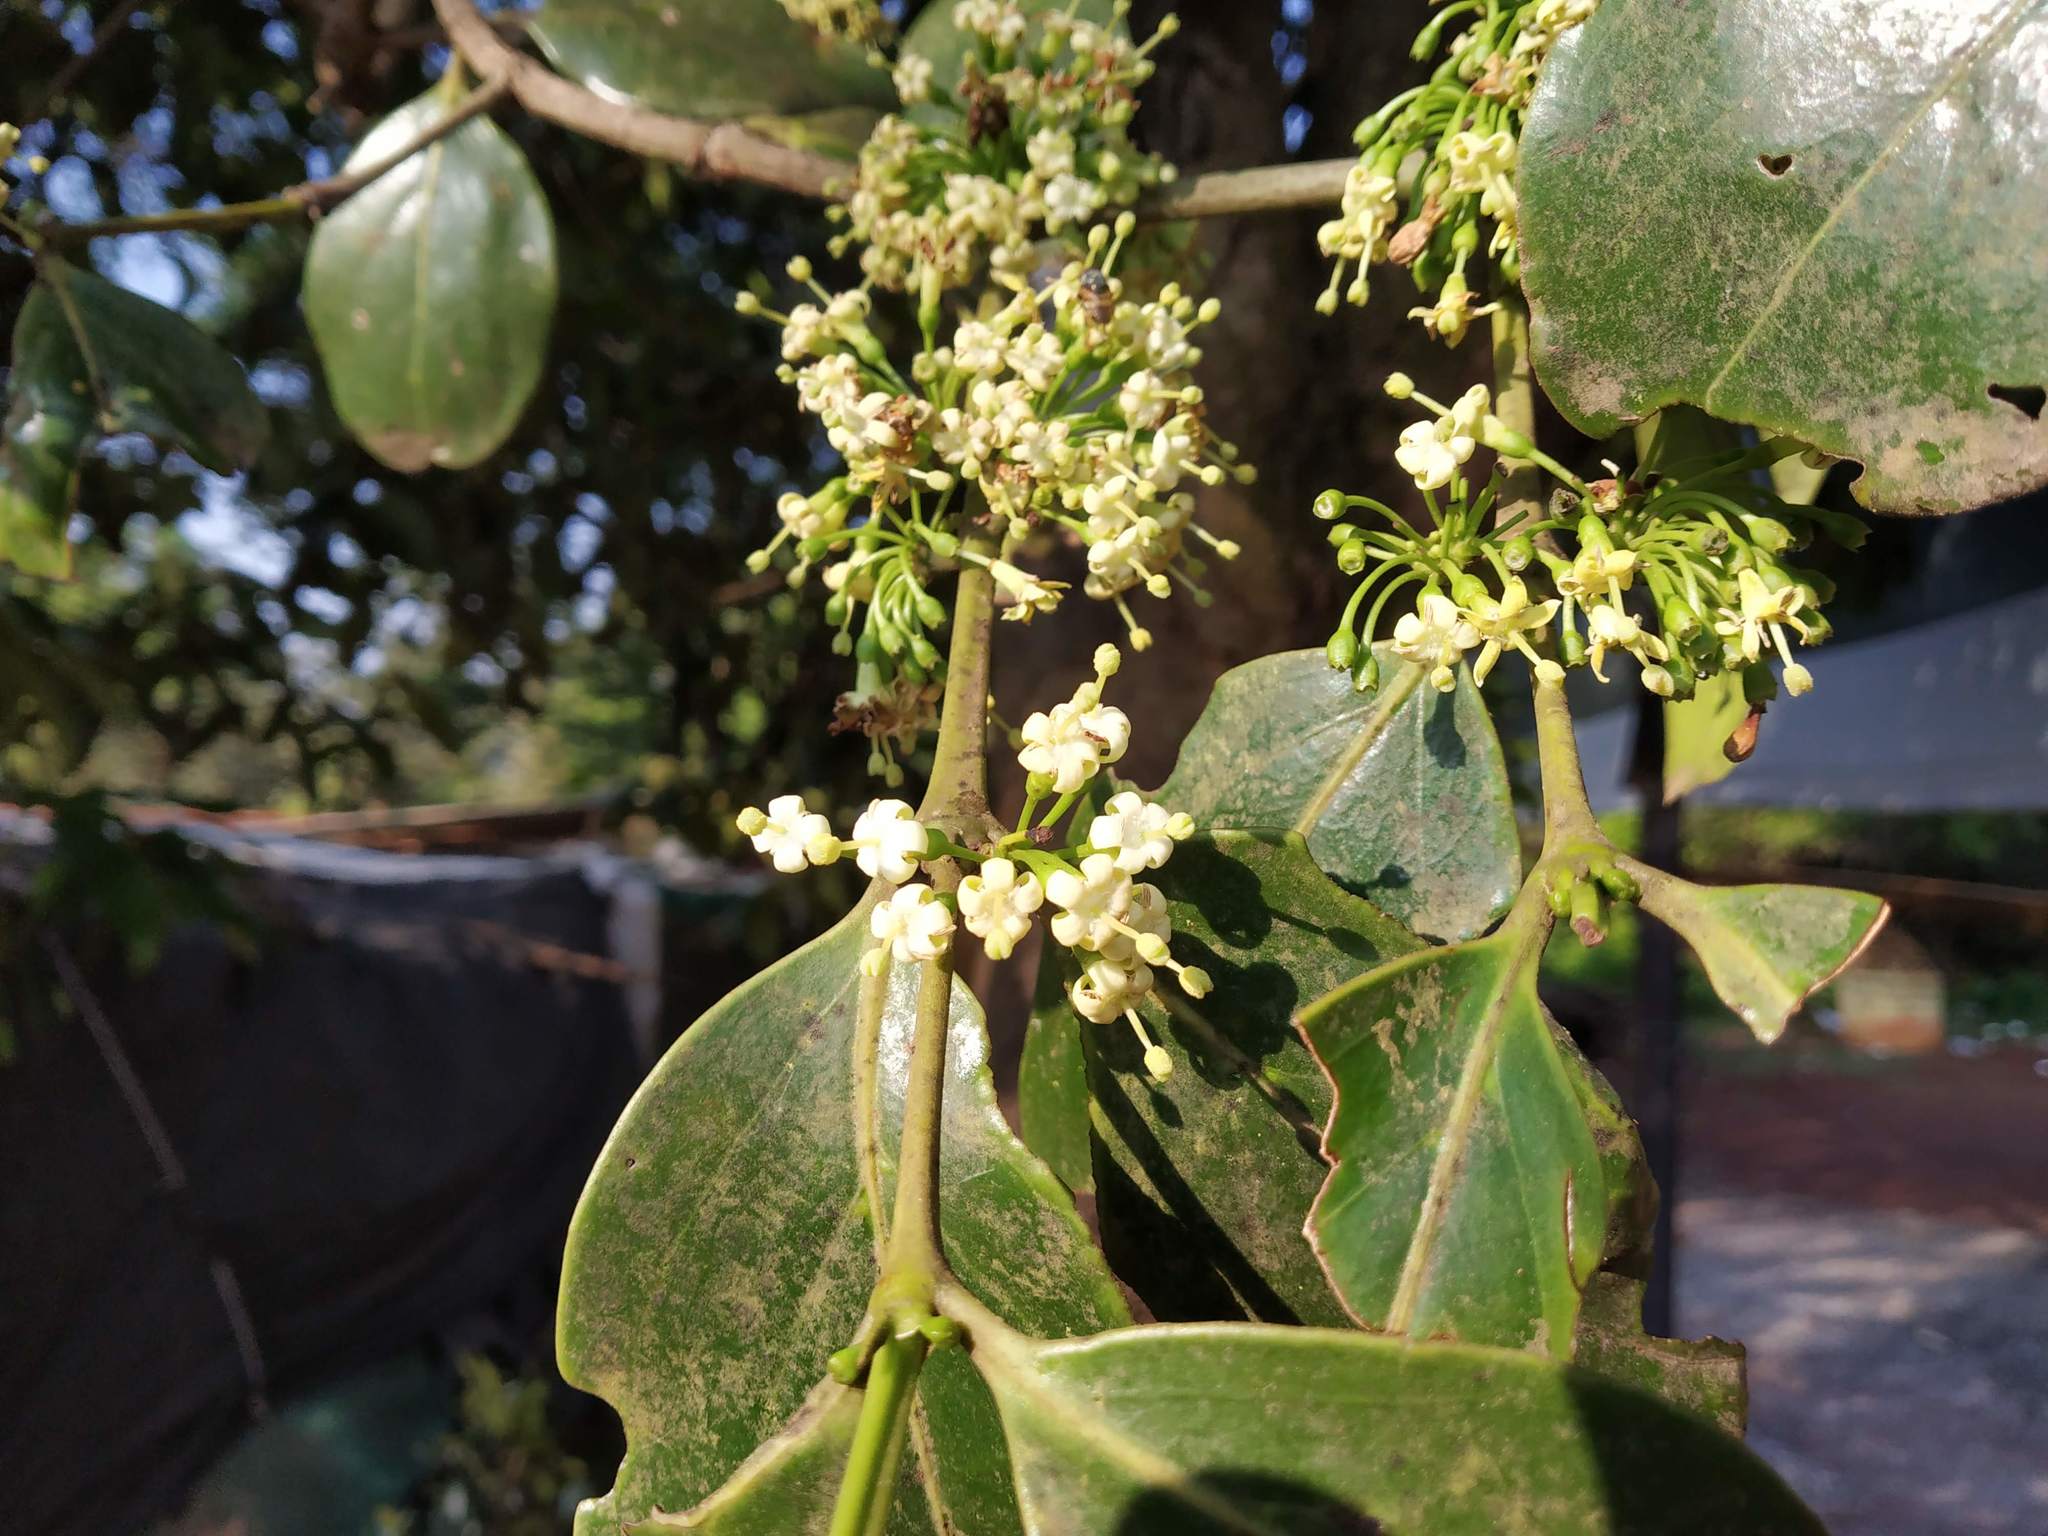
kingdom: Plantae
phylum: Tracheophyta
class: Magnoliopsida
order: Gentianales
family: Rubiaceae
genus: Psydrax
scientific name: Psydrax dicoccos
